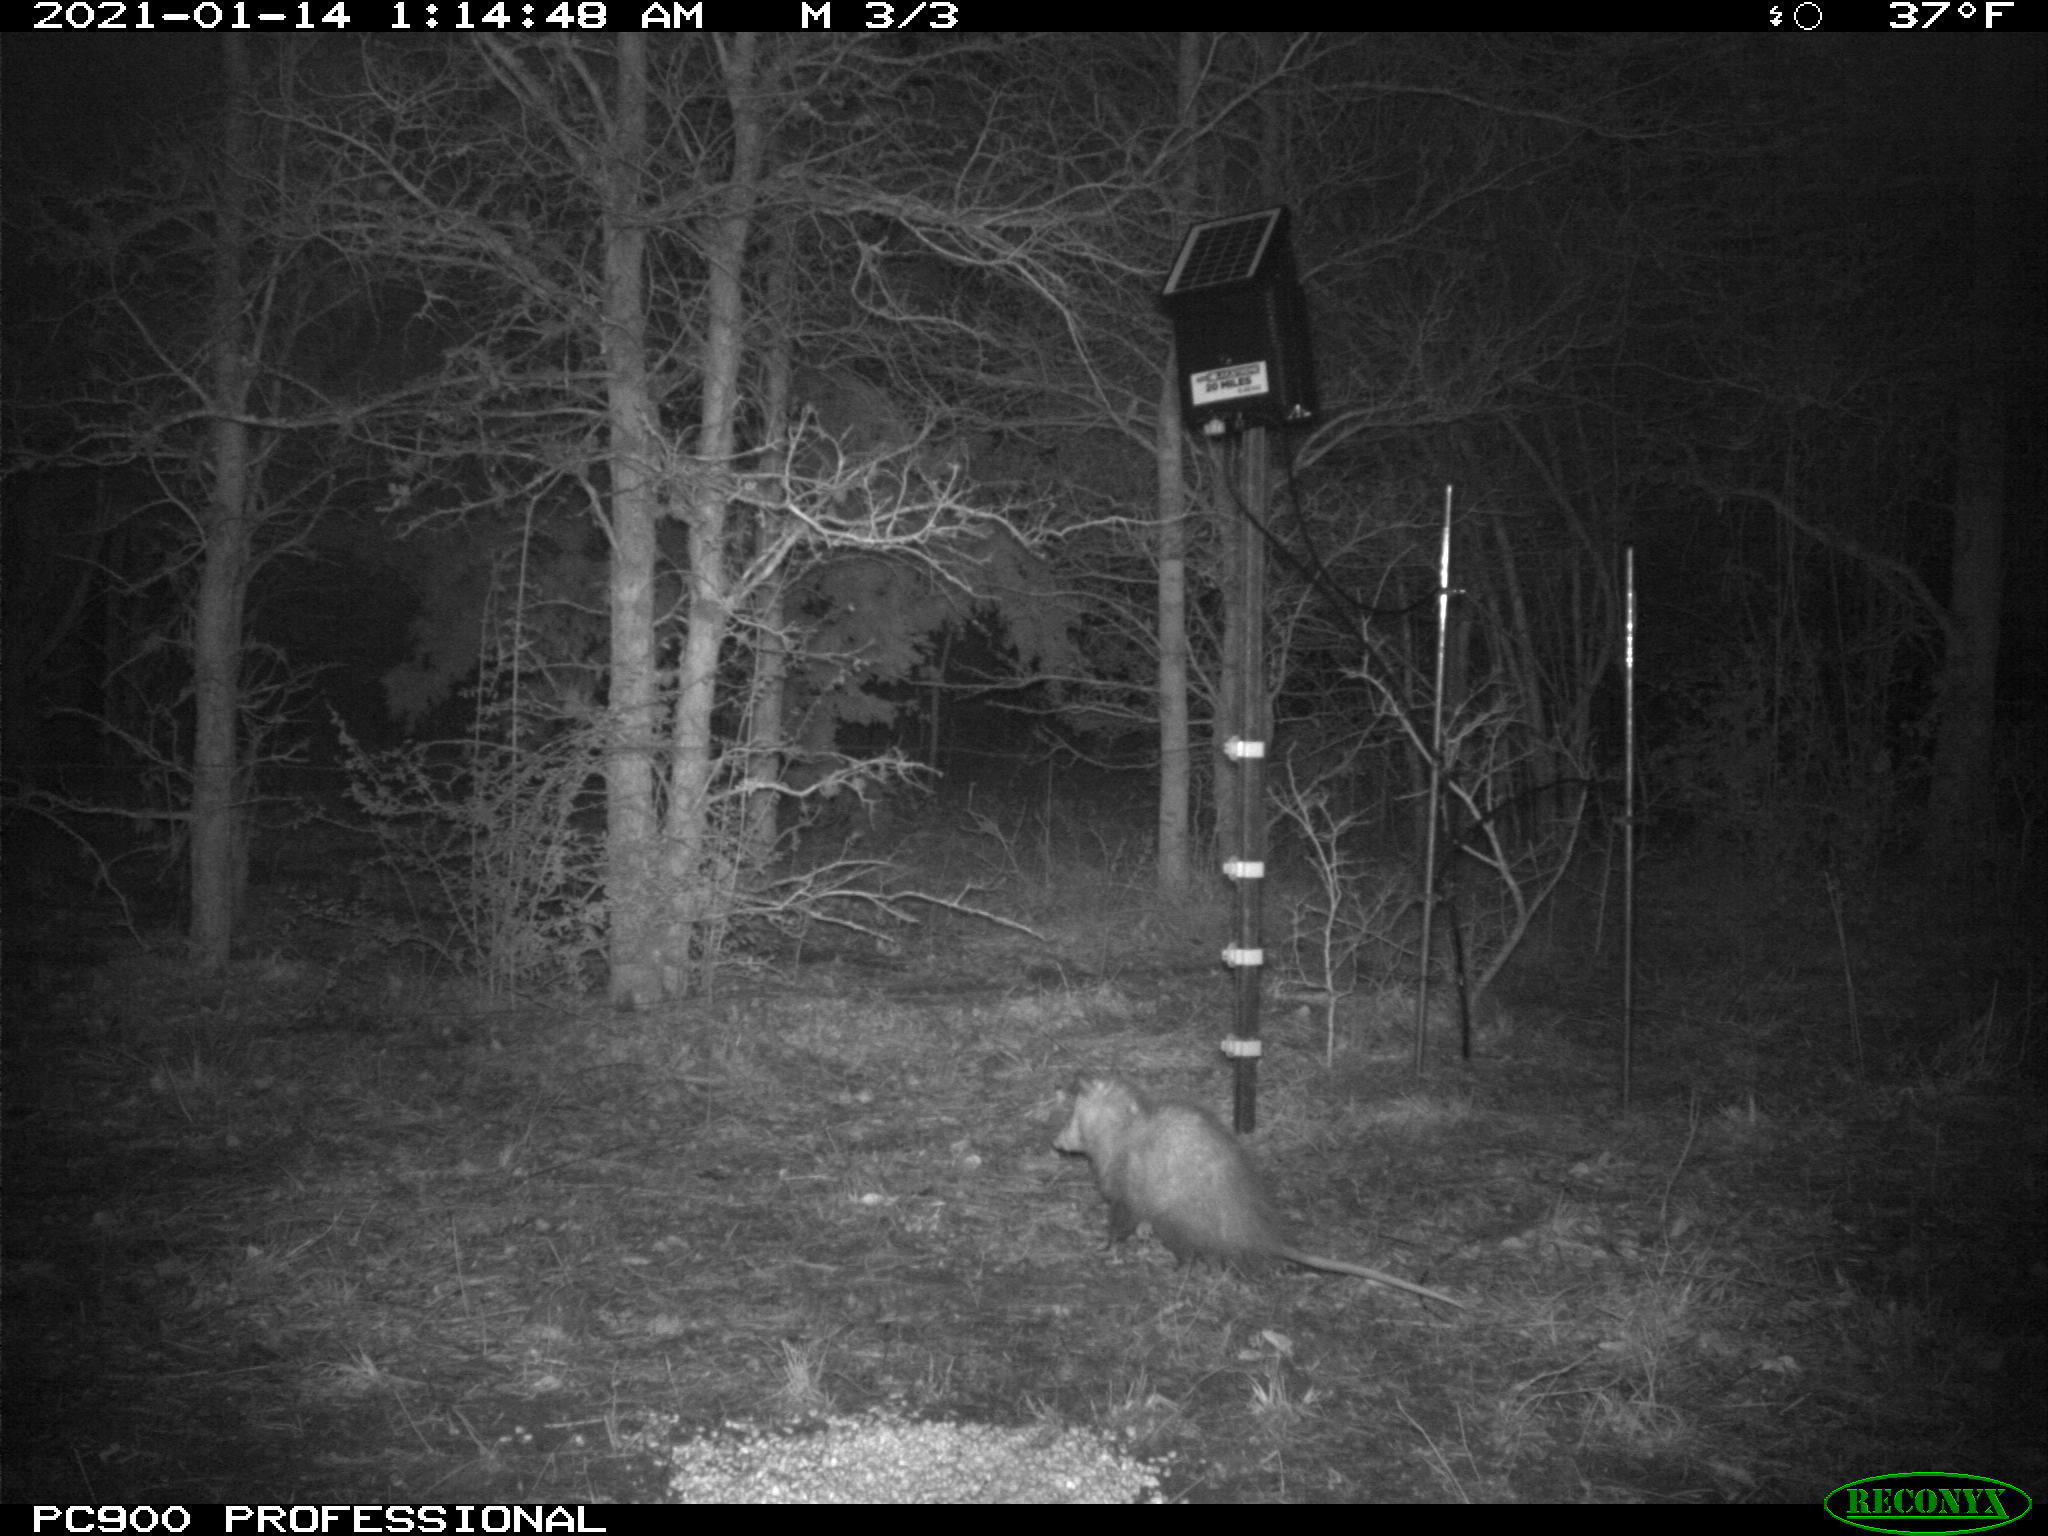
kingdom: Animalia
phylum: Chordata
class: Mammalia
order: Didelphimorphia
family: Didelphidae
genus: Didelphis
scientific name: Didelphis virginiana
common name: Virginia opossum
